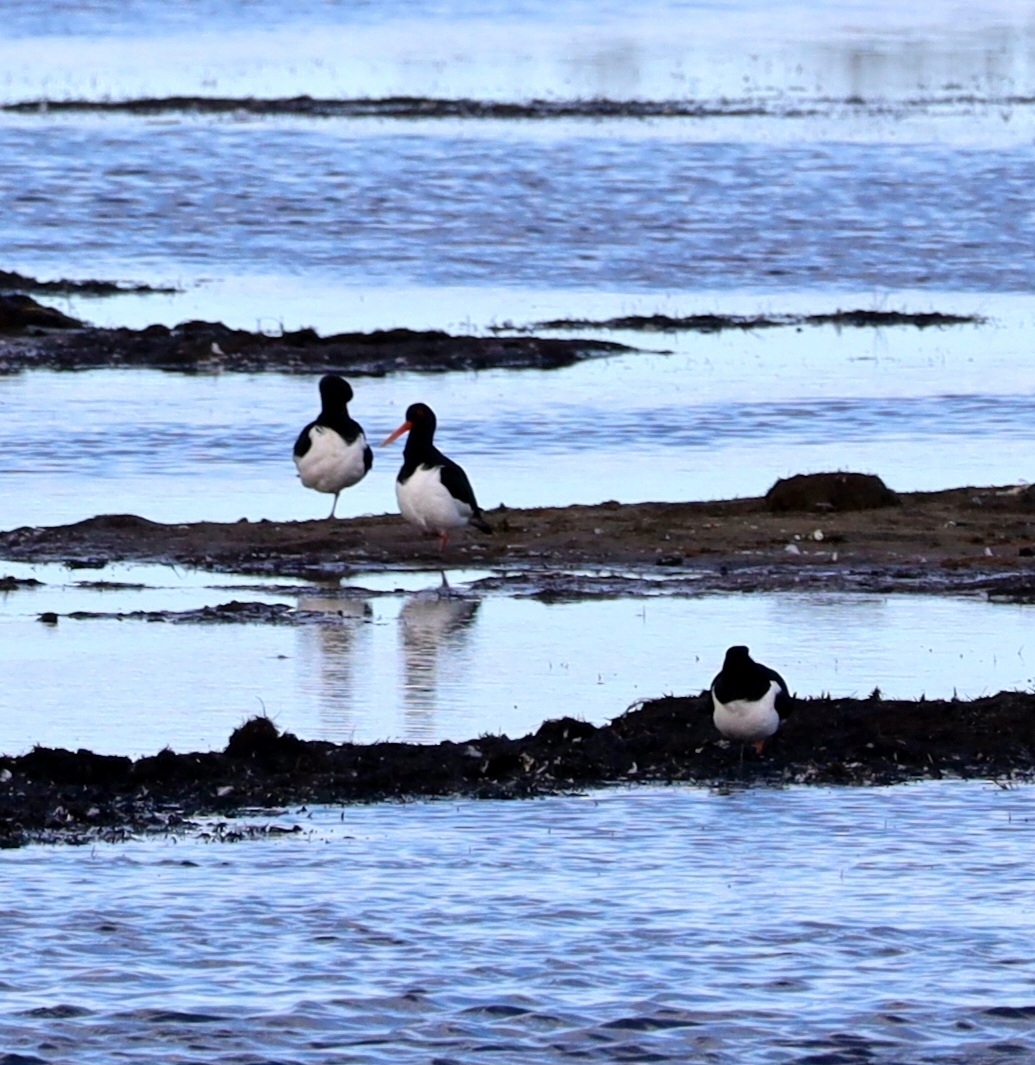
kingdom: Animalia
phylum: Chordata
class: Aves
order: Charadriiformes
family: Haematopodidae
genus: Haematopus
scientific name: Haematopus ostralegus
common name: Eurasian oystercatcher
